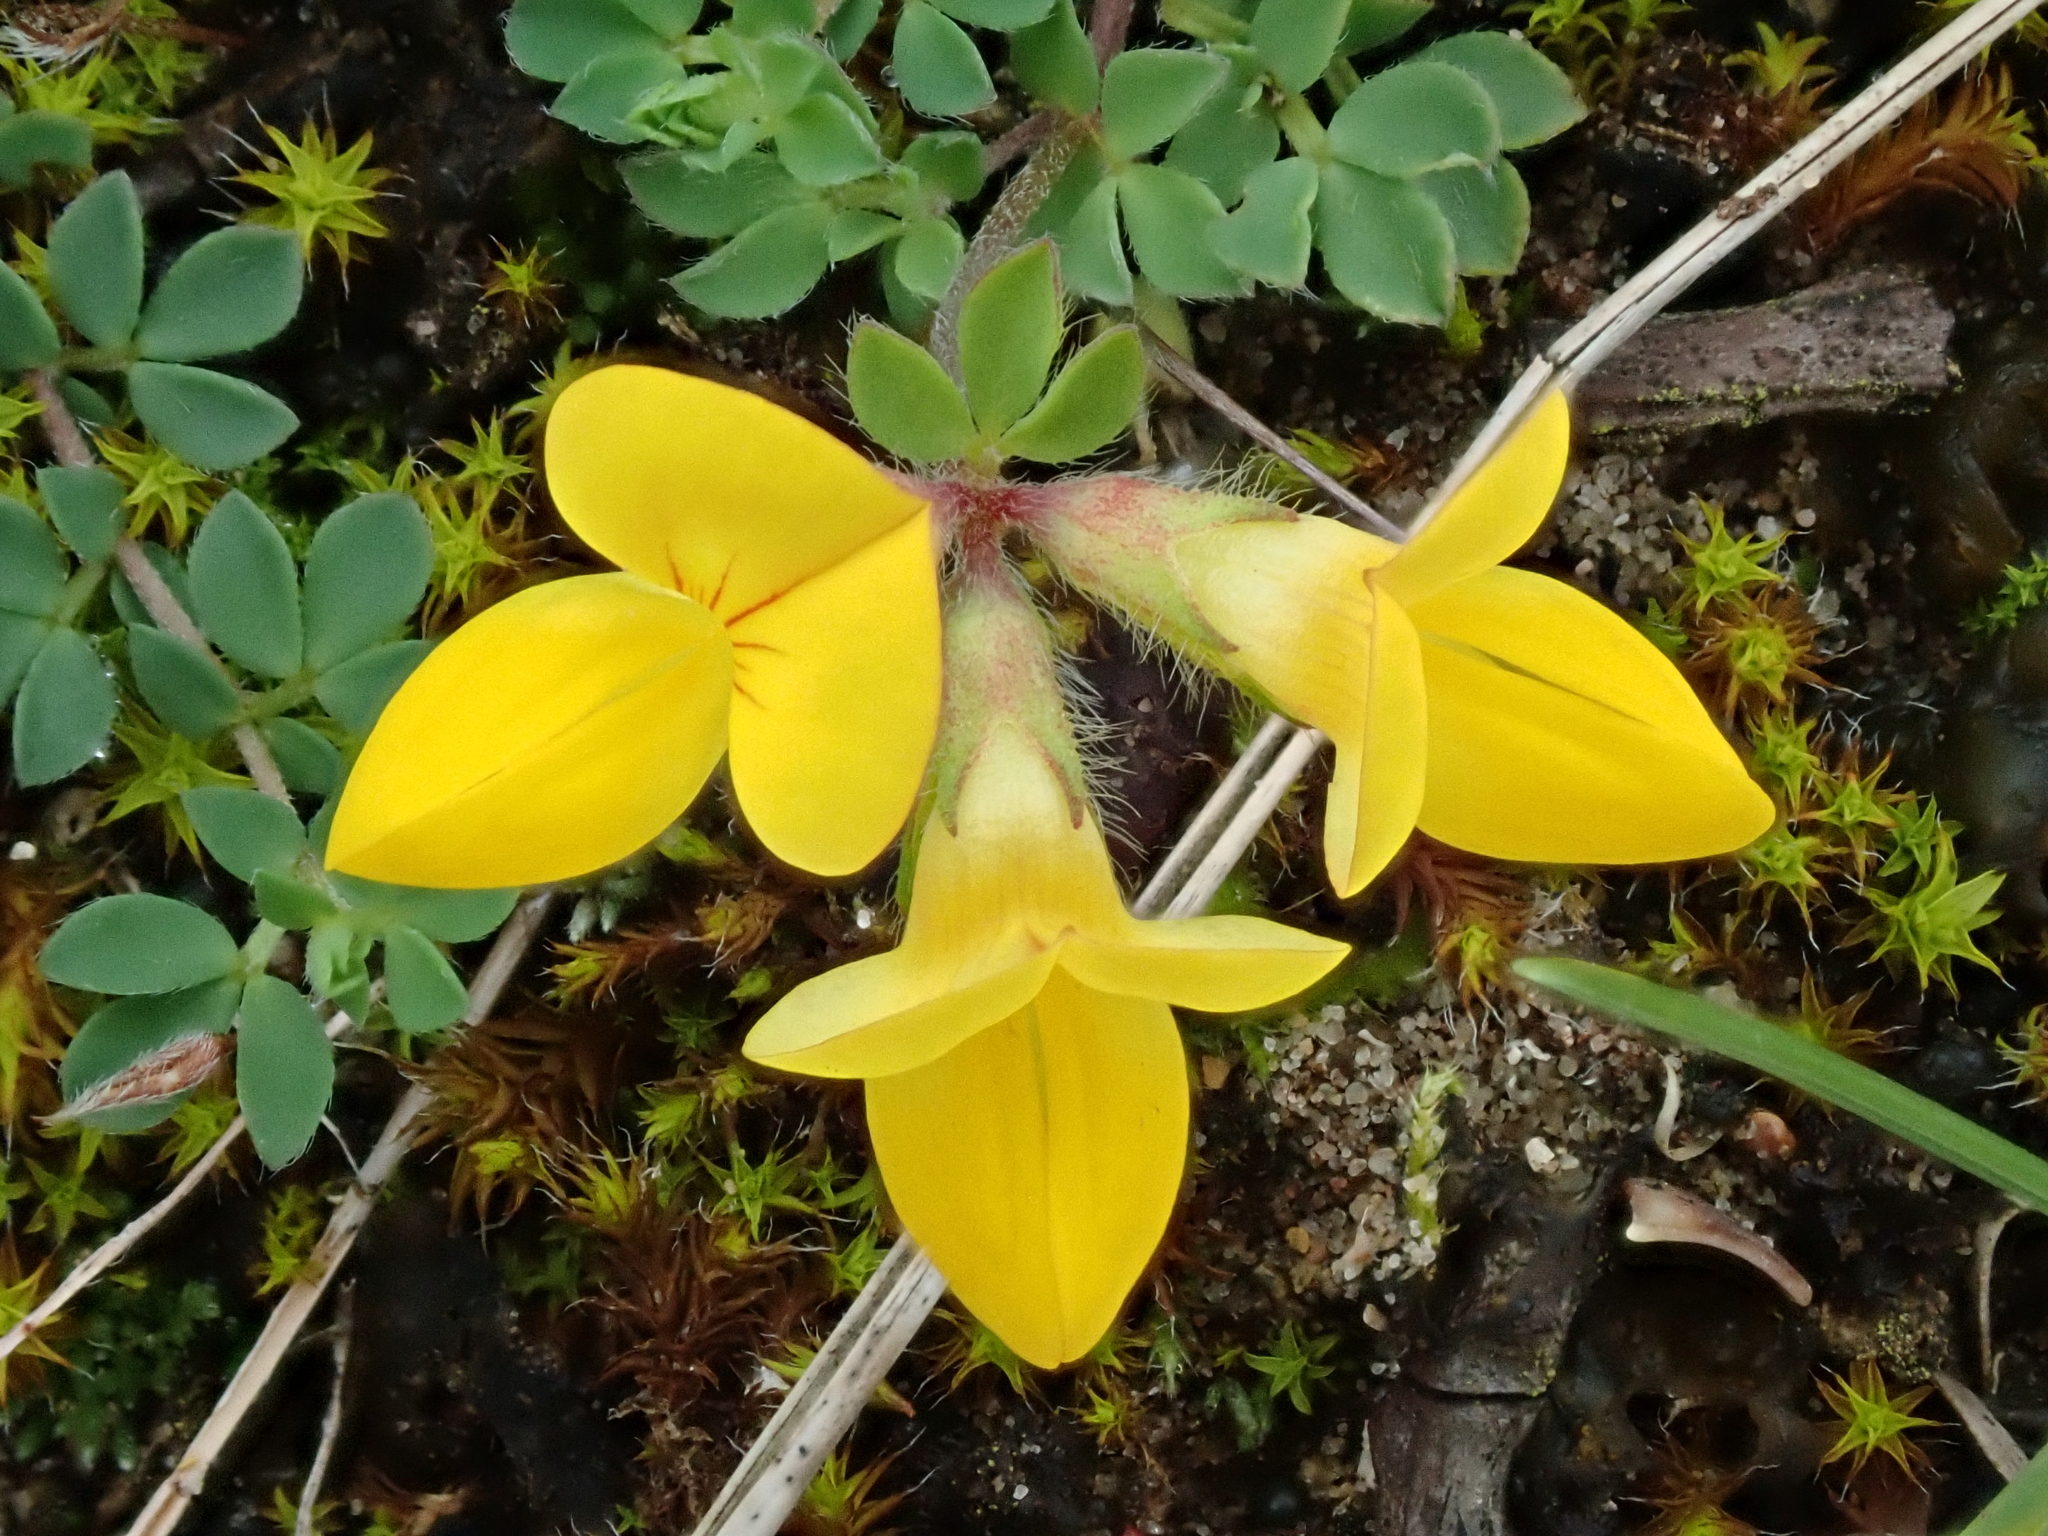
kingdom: Plantae
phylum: Tracheophyta
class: Magnoliopsida
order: Fabales
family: Fabaceae
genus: Lotus
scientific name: Lotus corniculatus
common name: Common bird's-foot-trefoil
